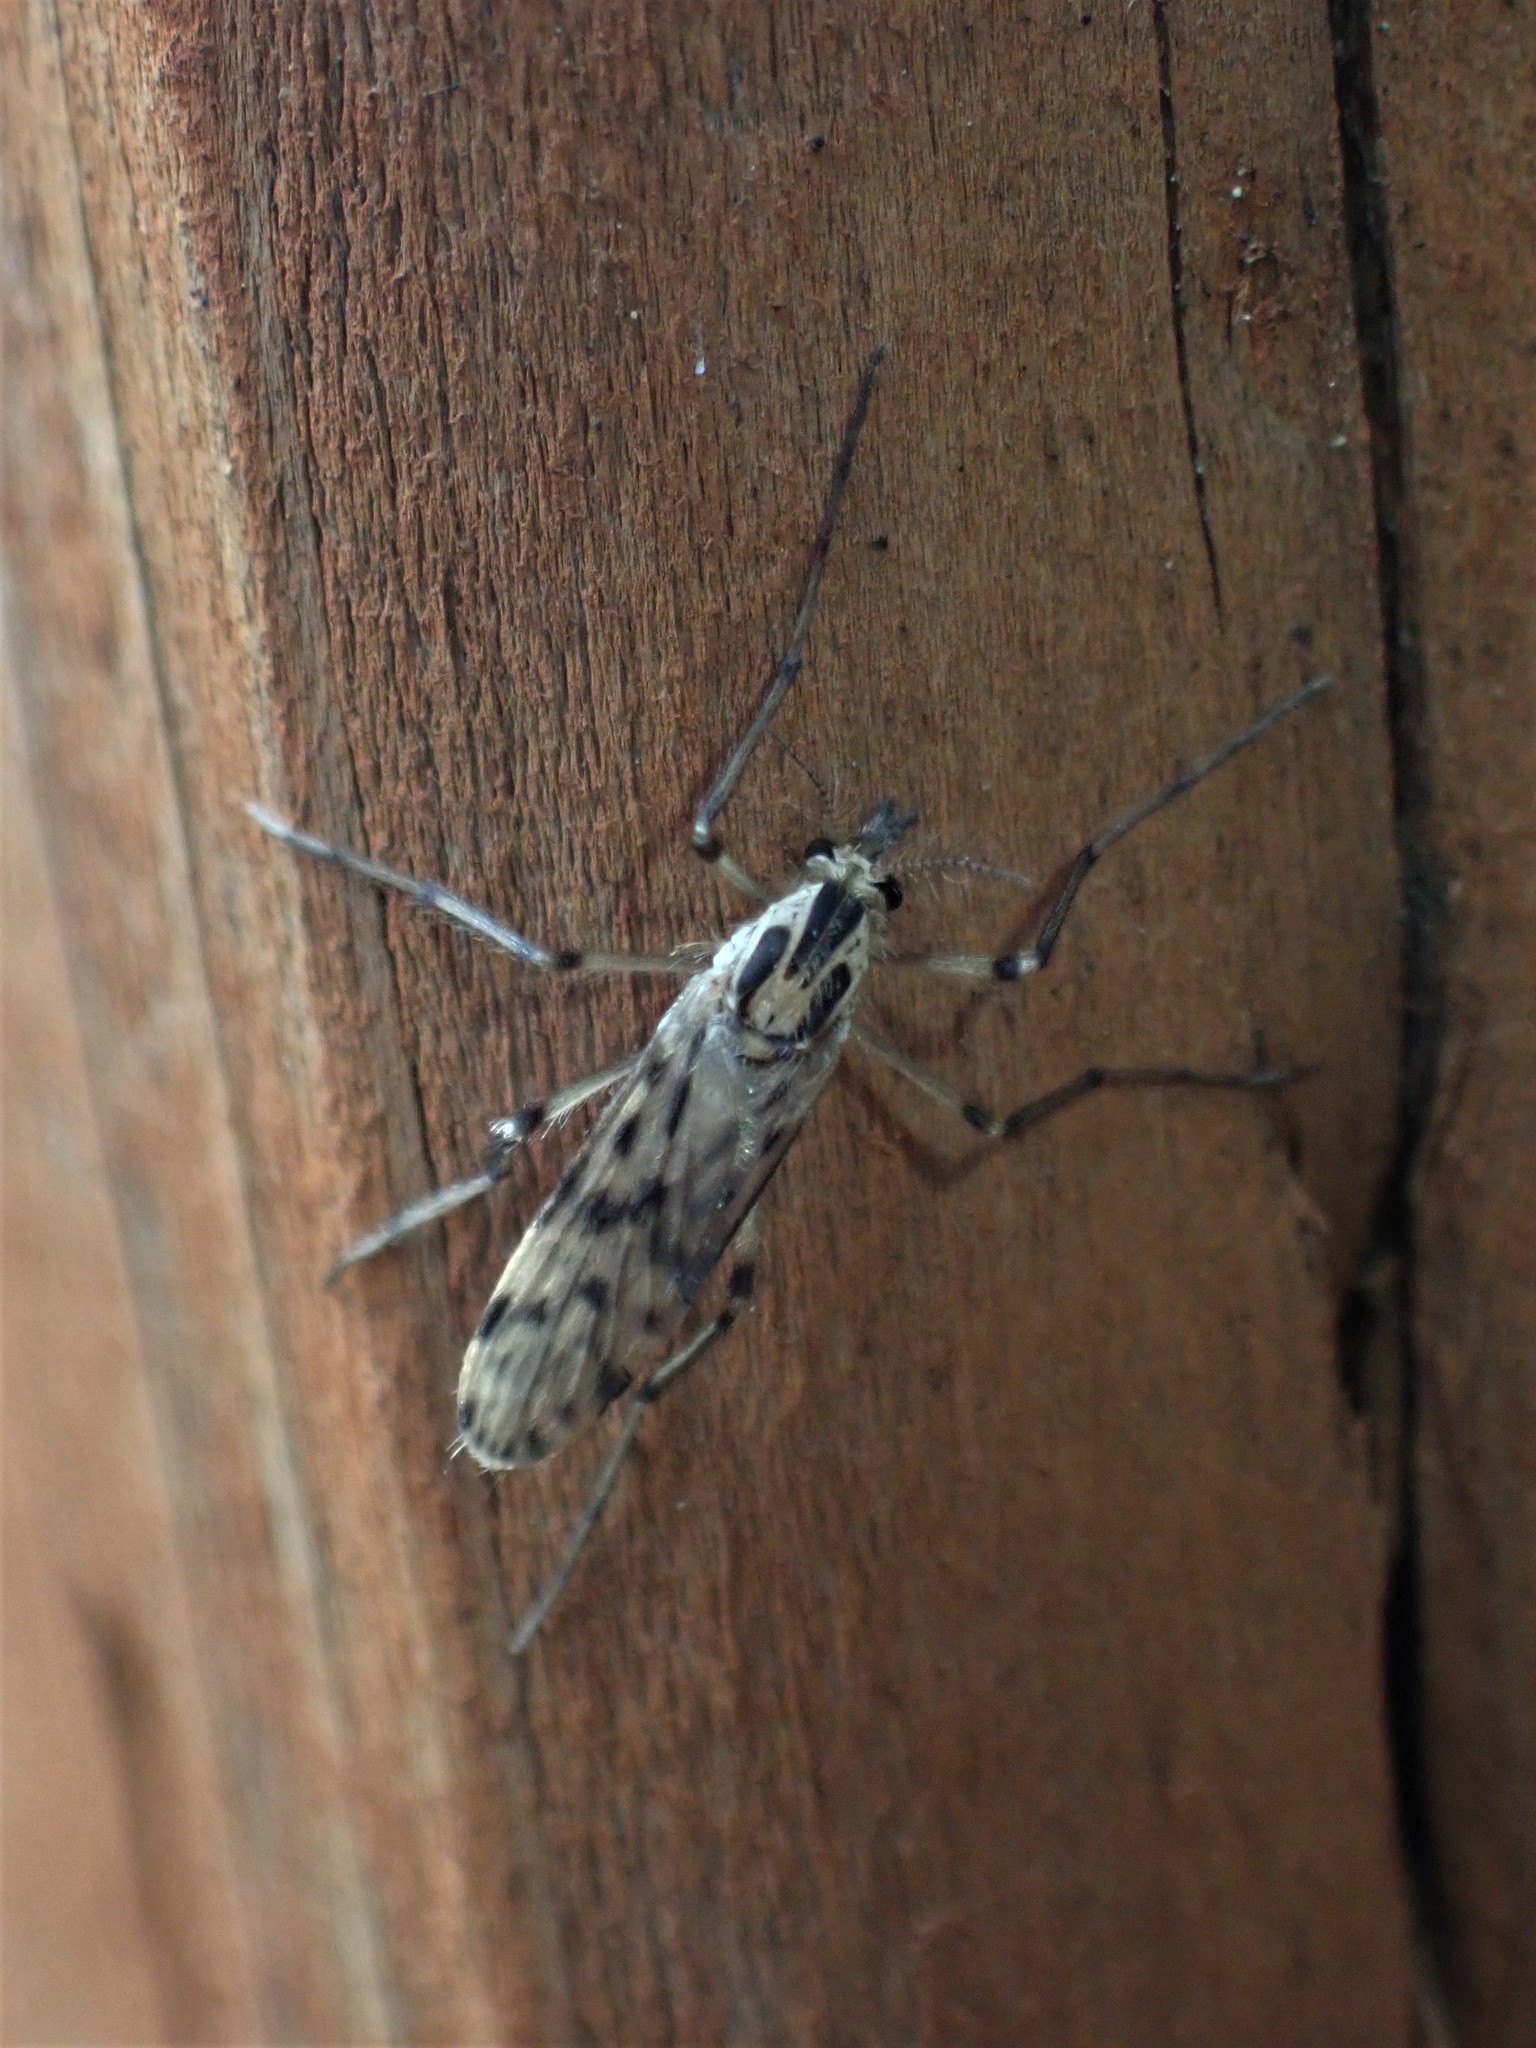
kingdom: Animalia
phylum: Arthropoda
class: Insecta
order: Diptera
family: Chaoboridae
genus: Chaoborus
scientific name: Chaoborus trivittatus
